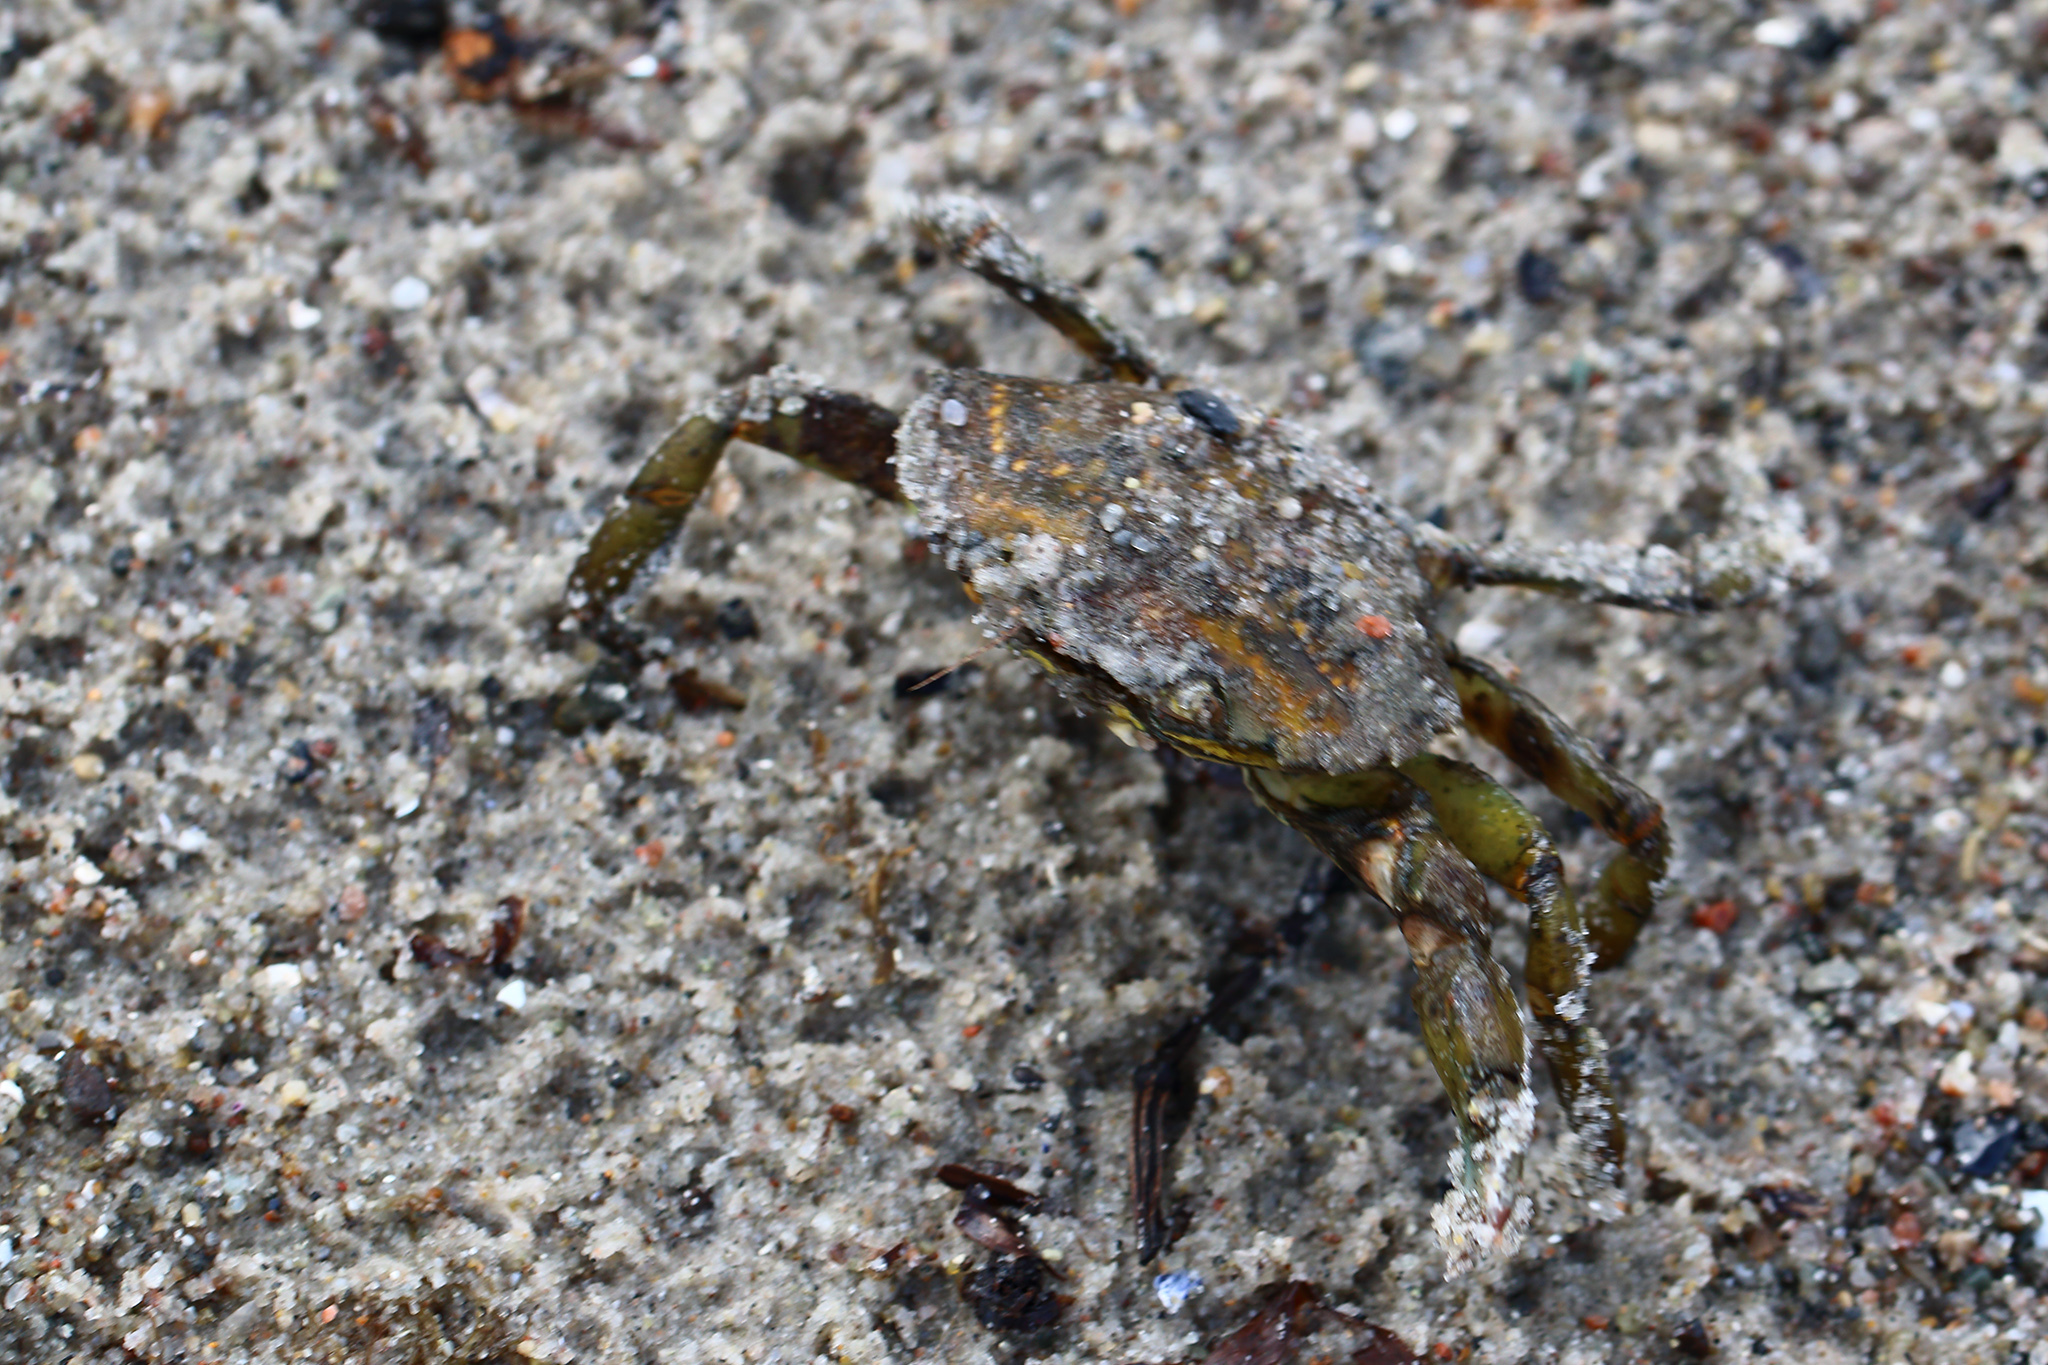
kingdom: Animalia
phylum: Arthropoda
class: Malacostraca
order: Decapoda
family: Carcinidae
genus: Carcinus
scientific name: Carcinus maenas
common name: European green crab
